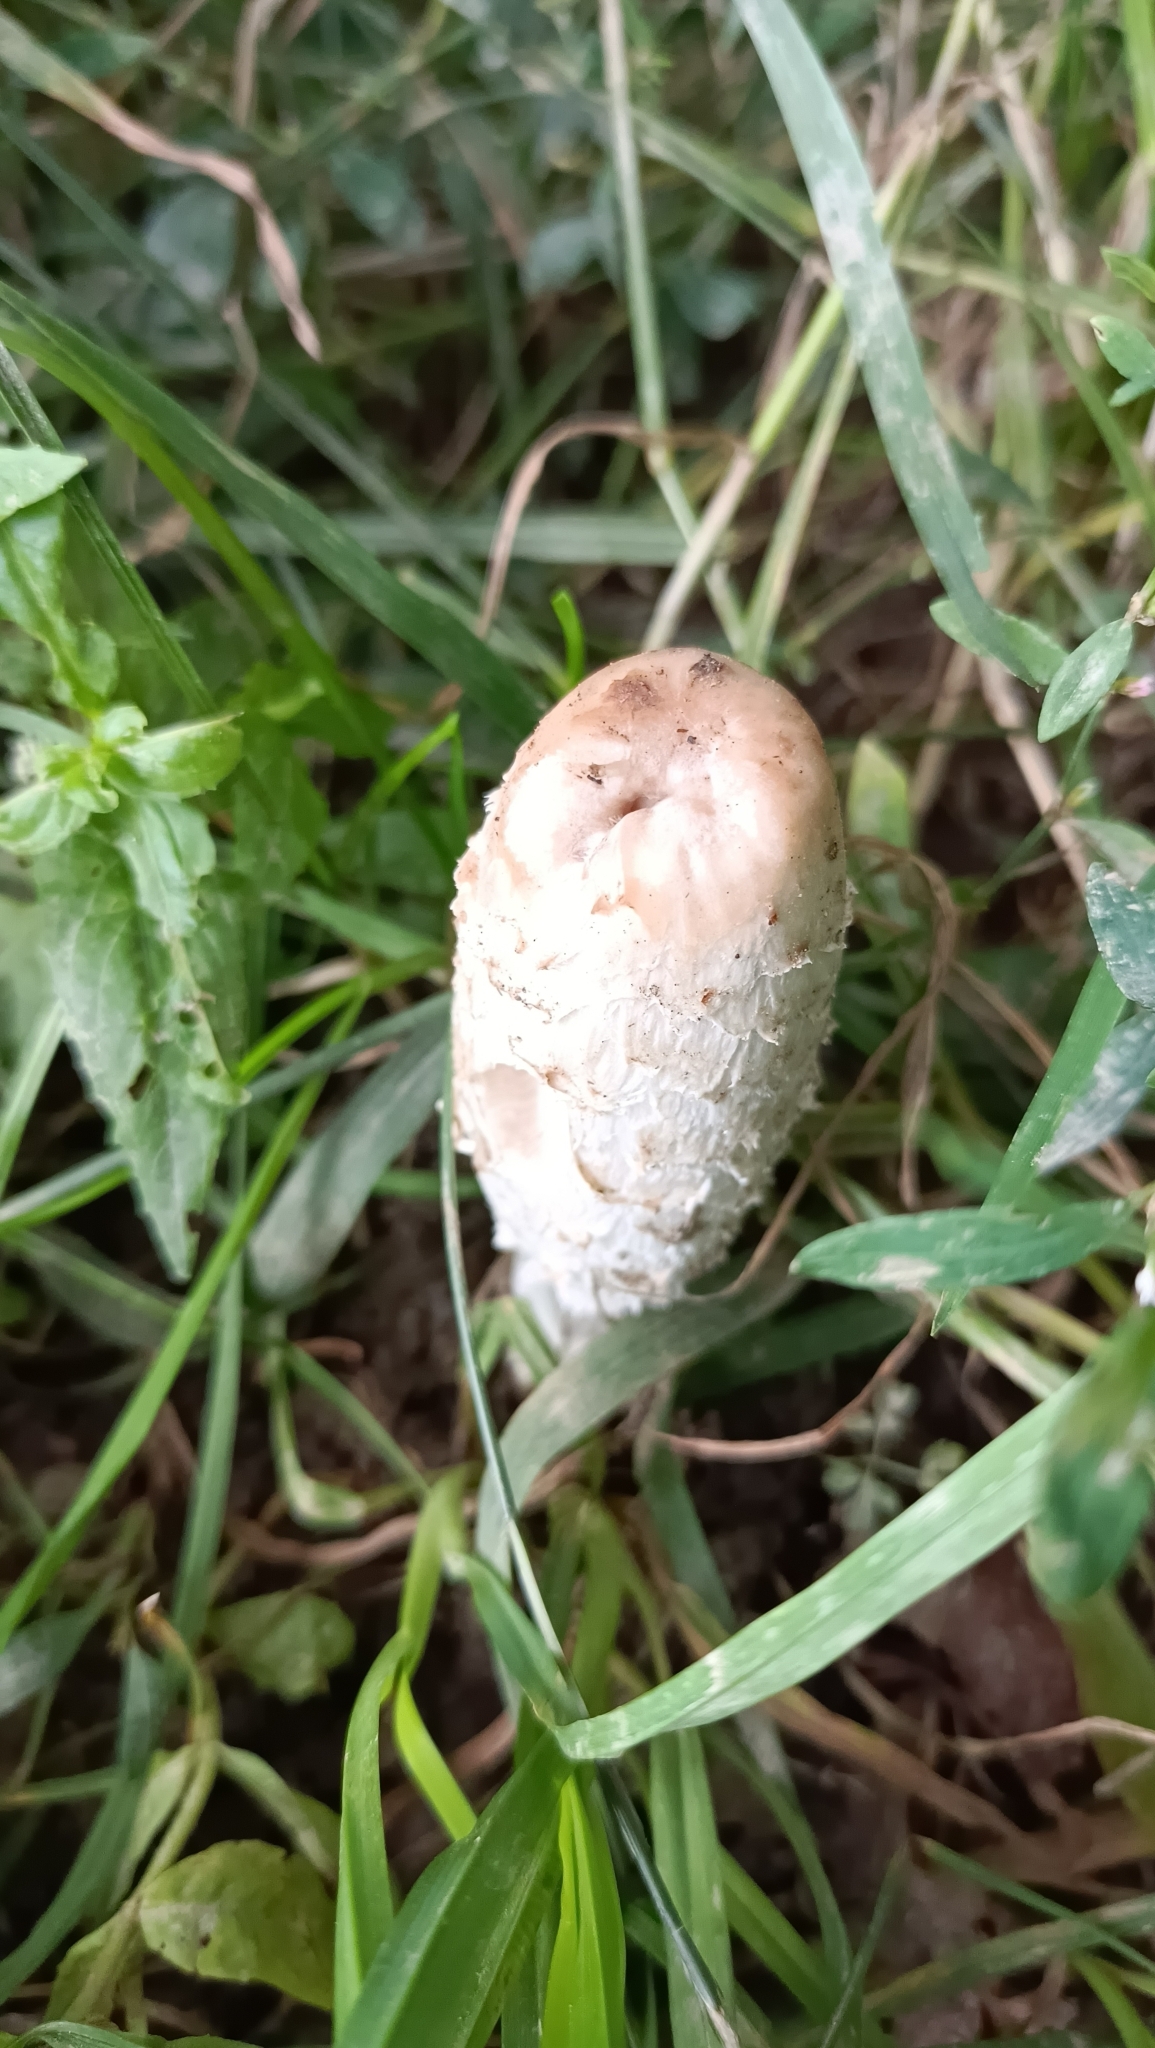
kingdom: Fungi
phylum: Basidiomycota
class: Agaricomycetes
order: Agaricales
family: Agaricaceae
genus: Coprinus
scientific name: Coprinus comatus
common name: Lawyer's wig
